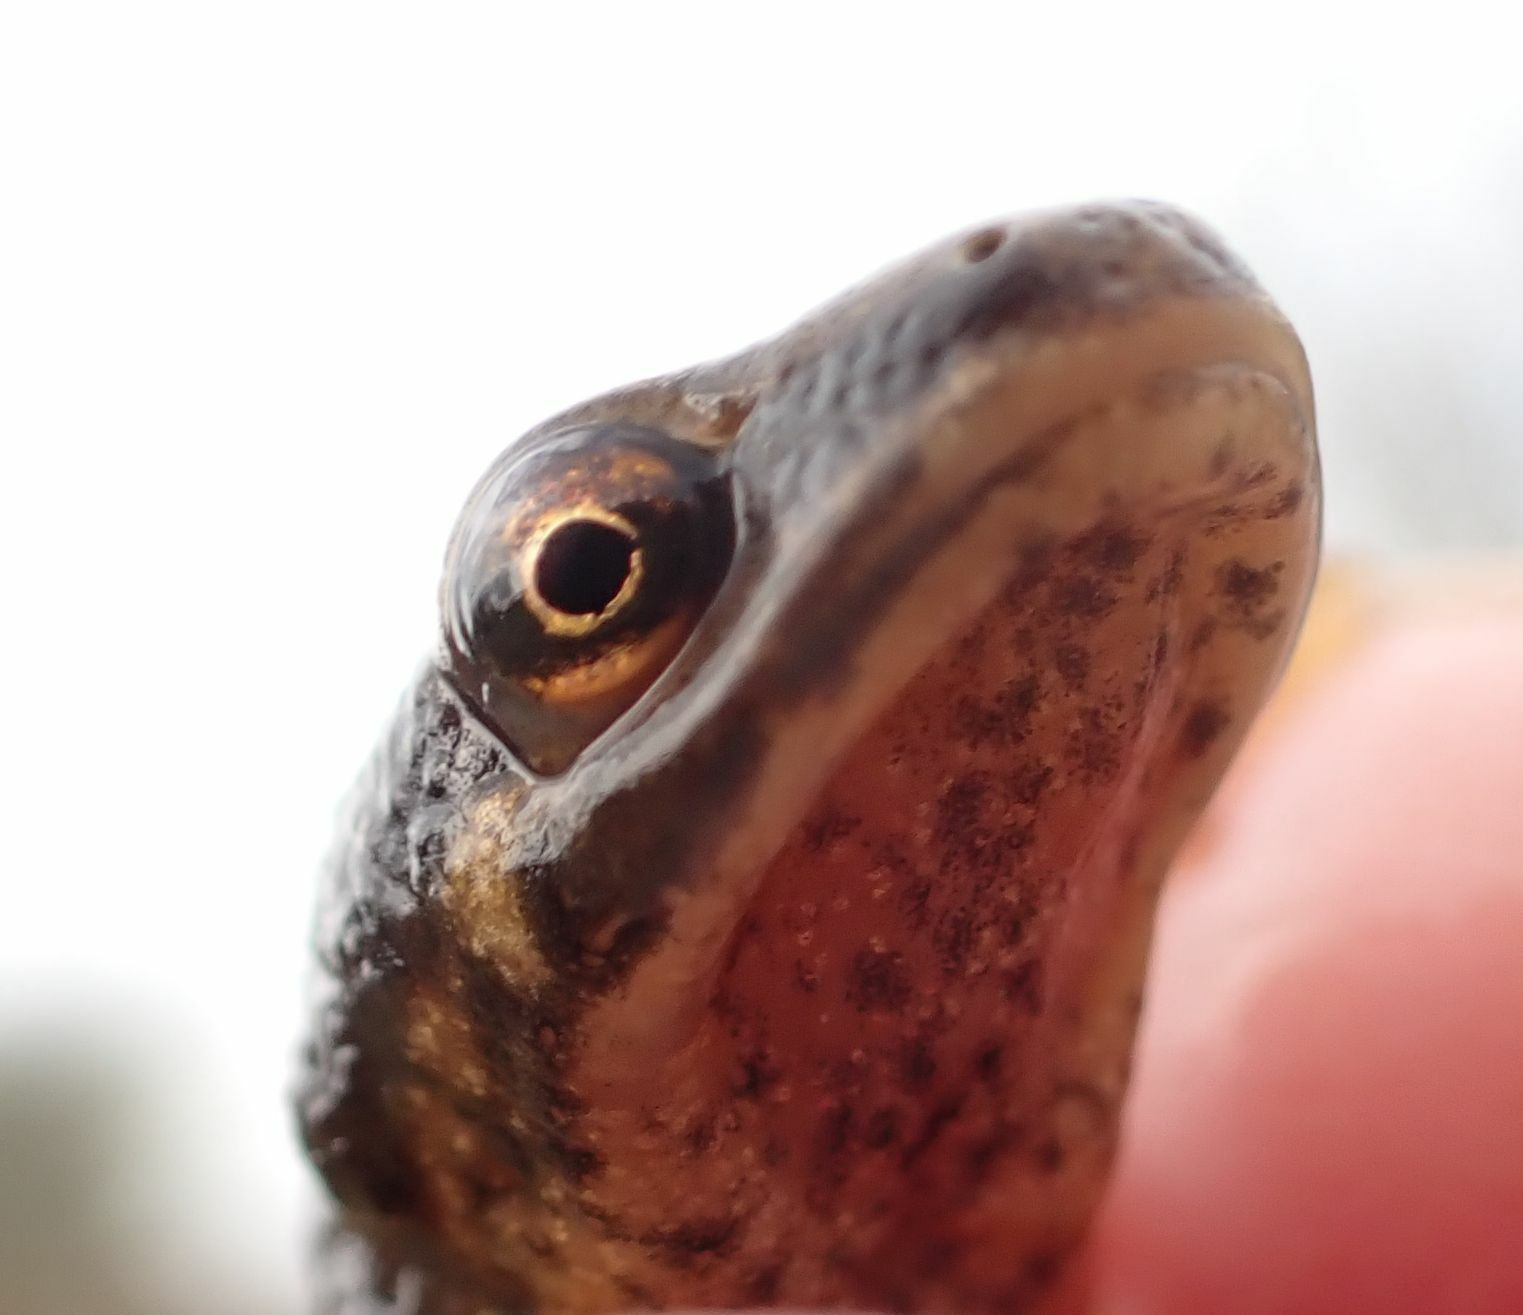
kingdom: Animalia
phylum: Chordata
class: Amphibia
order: Caudata
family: Salamandridae
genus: Lissotriton
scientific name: Lissotriton vulgaris
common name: Smooth newt
